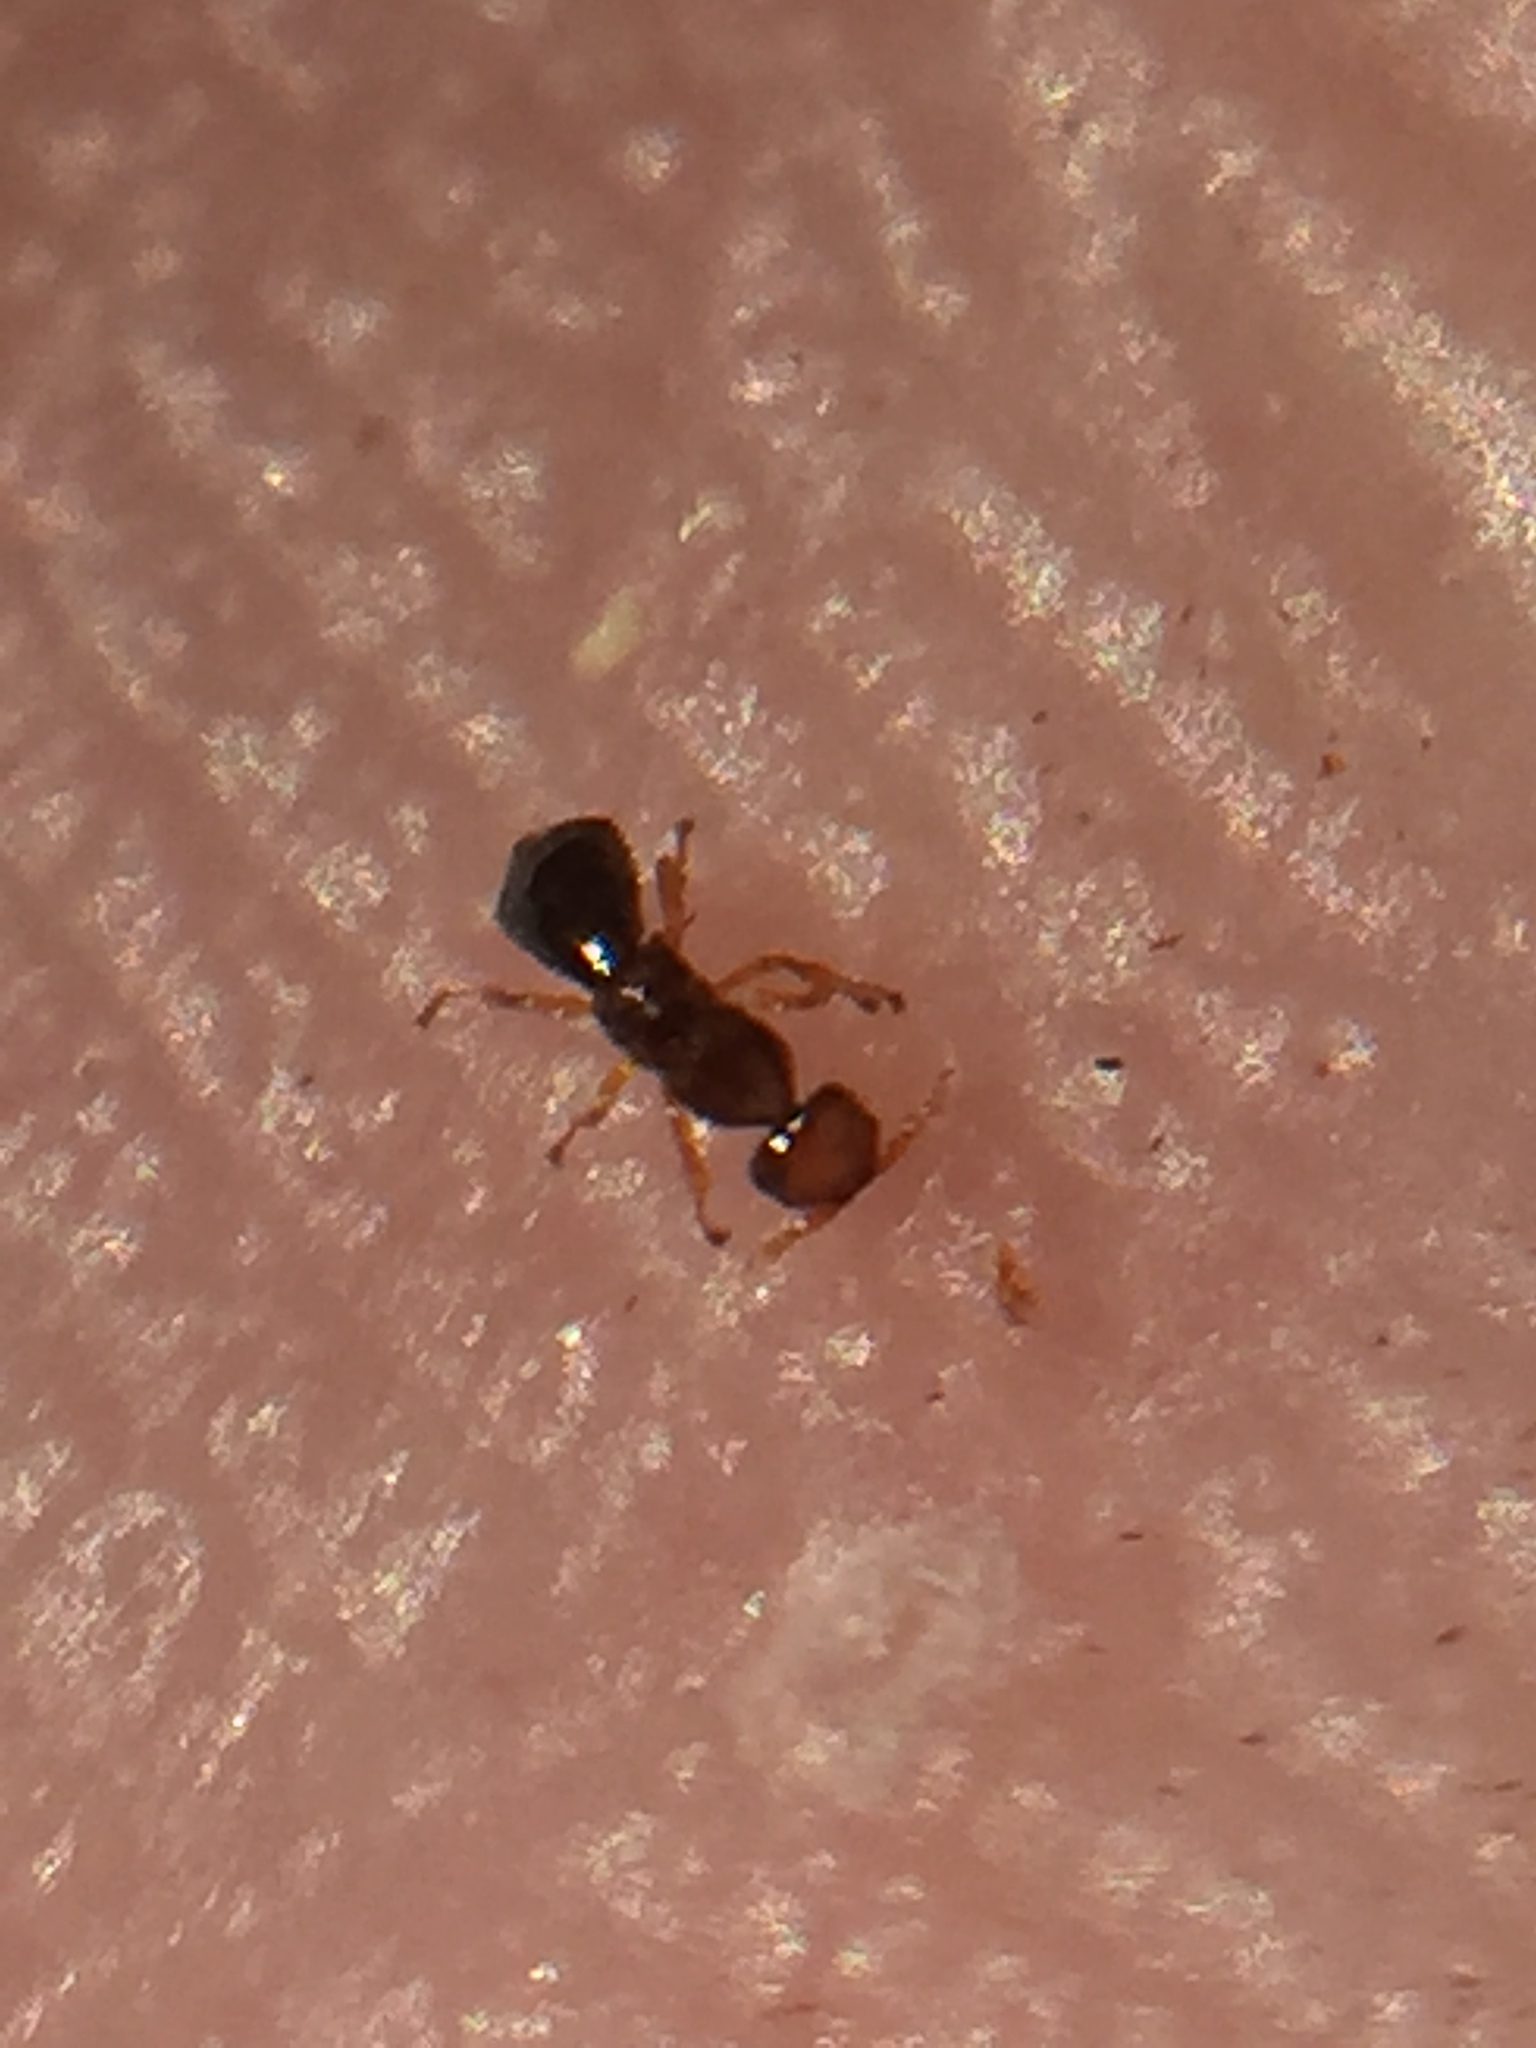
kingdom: Animalia
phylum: Arthropoda
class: Insecta
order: Hymenoptera
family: Agaonidae
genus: Pseudidarnes
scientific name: Pseudidarnes minerva
